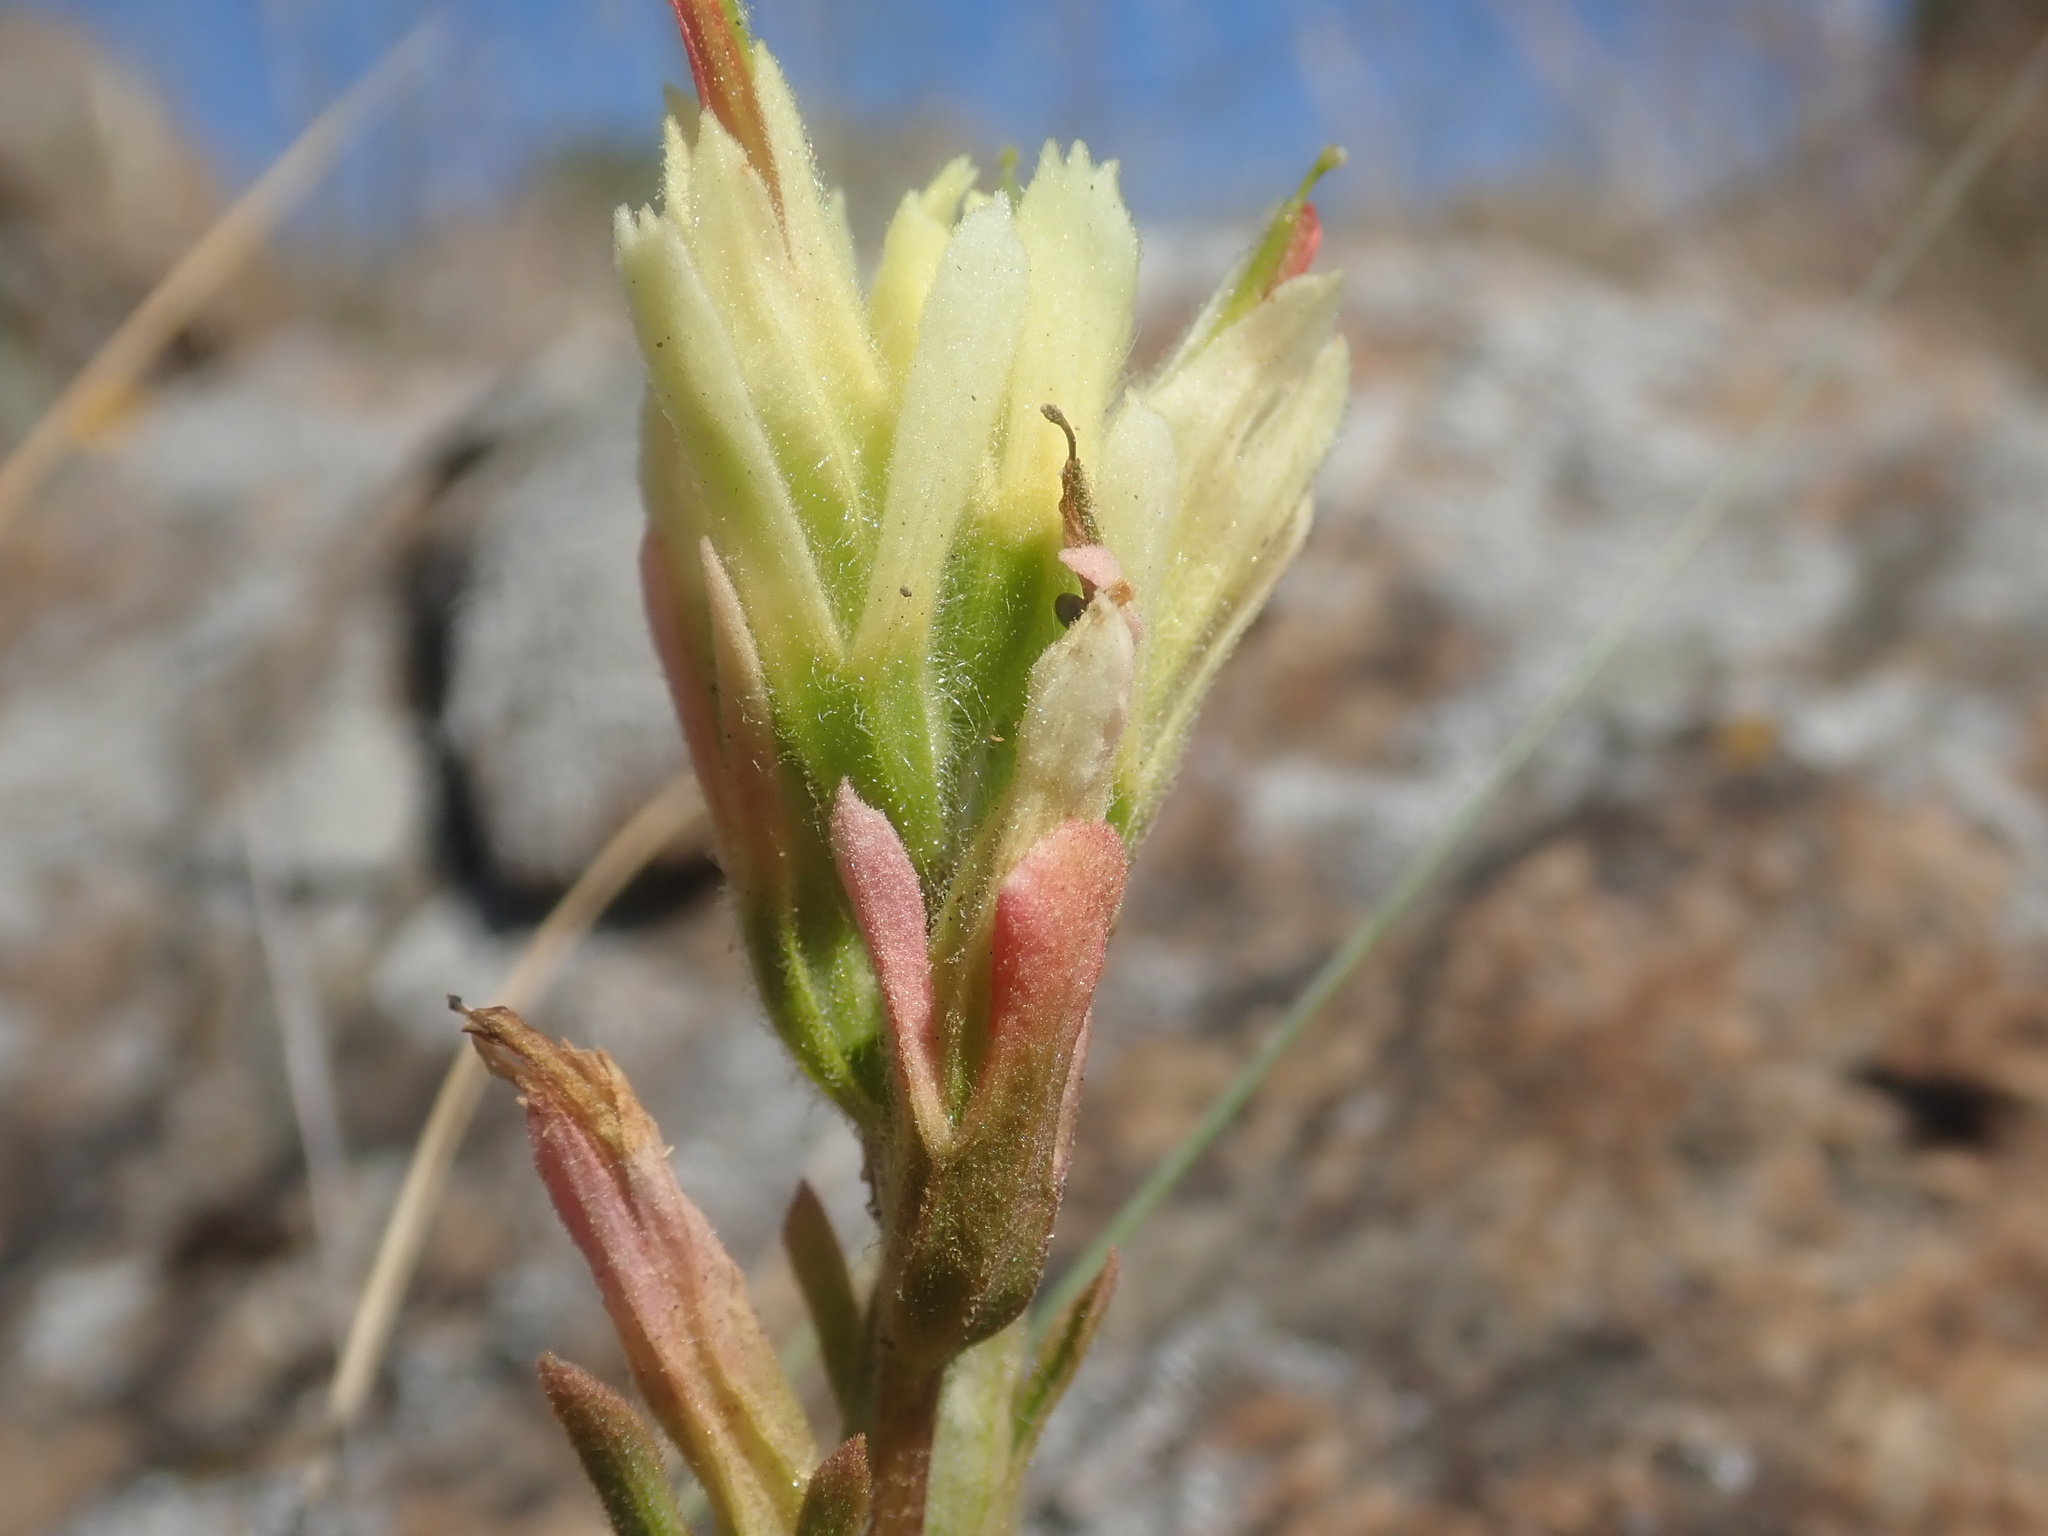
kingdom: Plantae
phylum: Tracheophyta
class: Magnoliopsida
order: Lamiales
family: Orobanchaceae
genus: Castilleja
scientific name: Castilleja affinis
